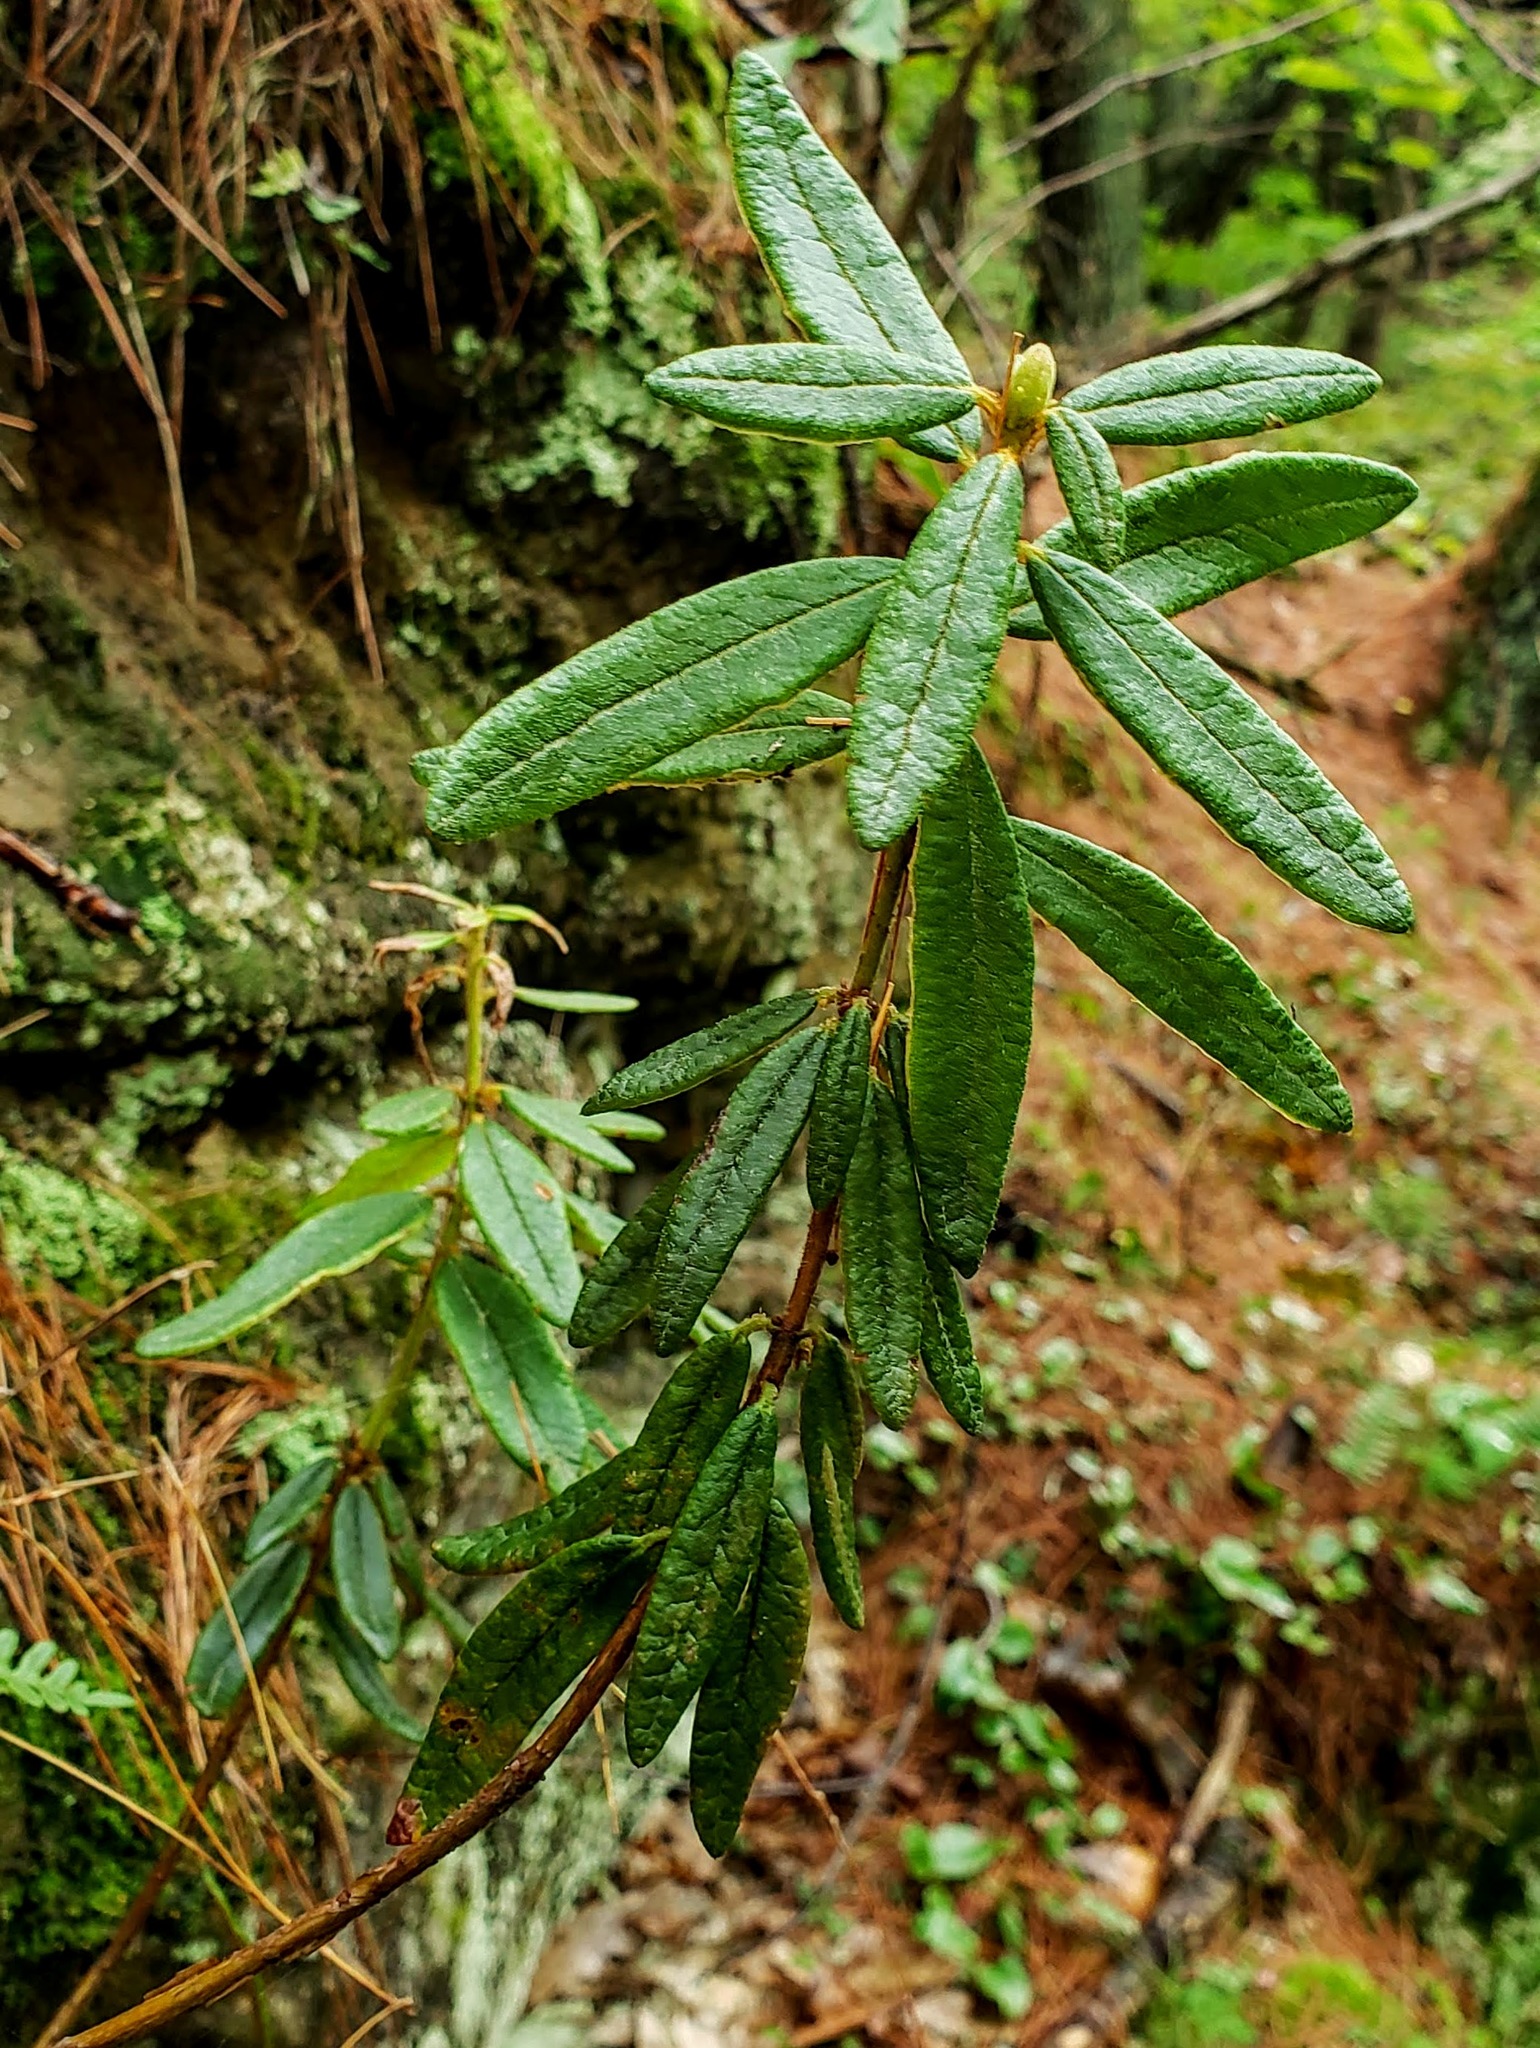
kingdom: Plantae
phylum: Tracheophyta
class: Magnoliopsida
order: Ericales
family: Ericaceae
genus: Rhododendron
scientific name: Rhododendron groenlandicum
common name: Bog labrador tea
